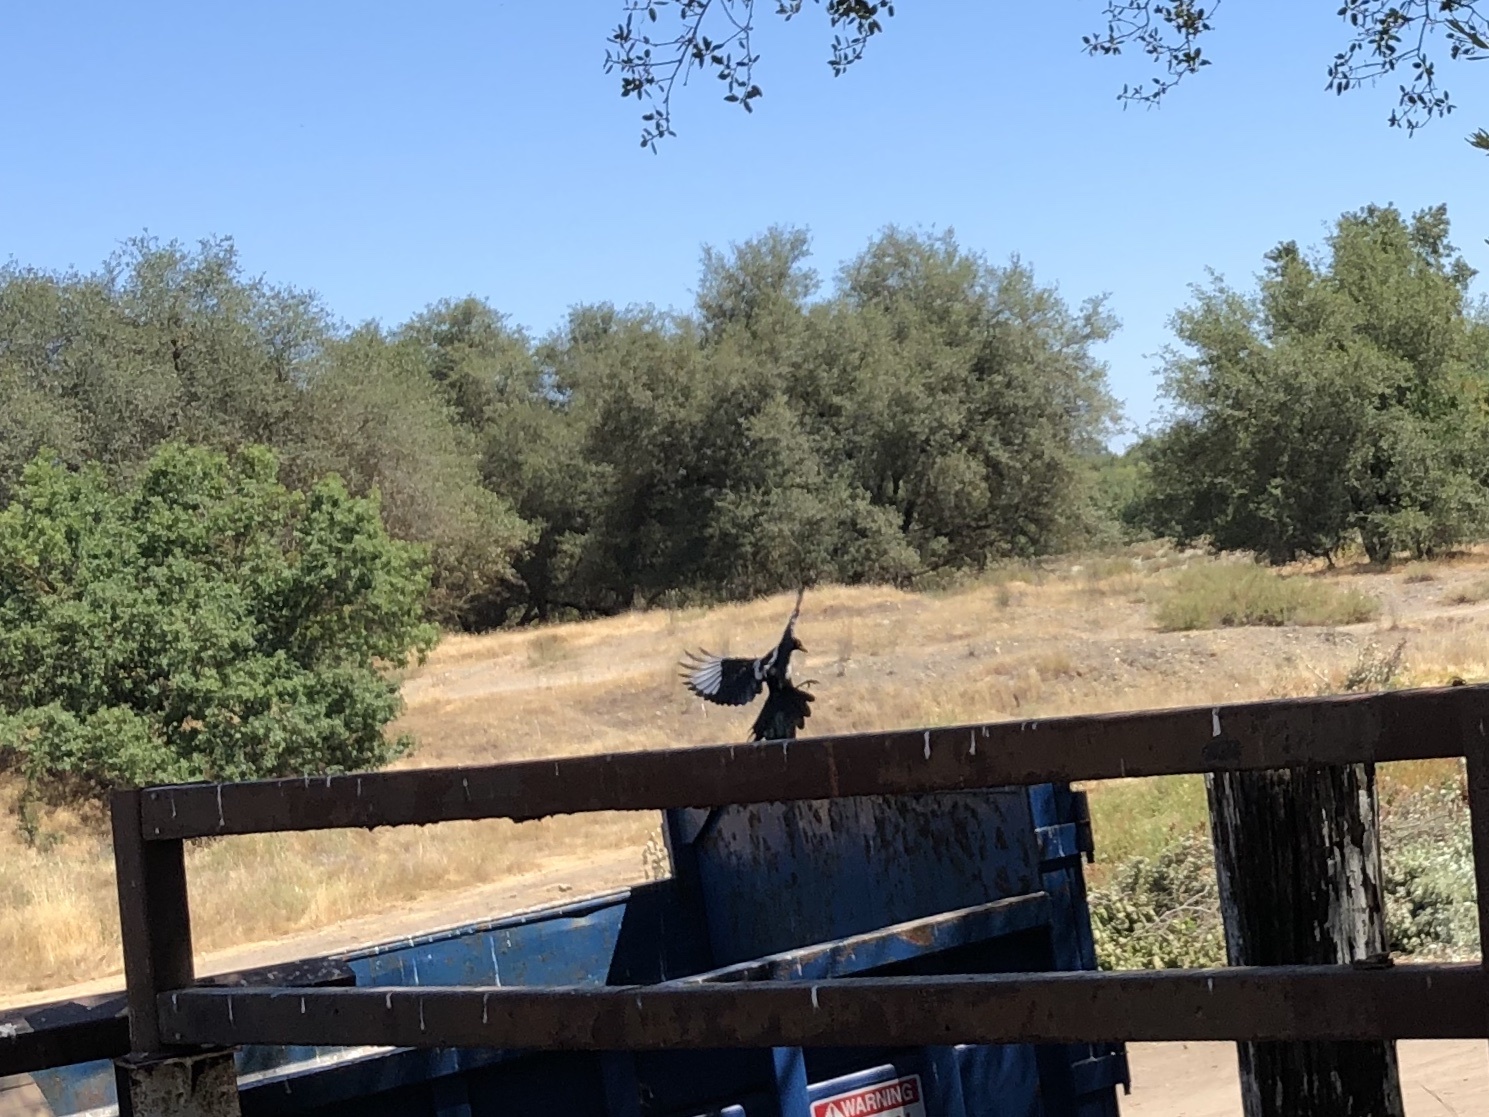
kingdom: Animalia
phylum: Chordata
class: Aves
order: Passeriformes
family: Corvidae
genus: Pica
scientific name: Pica nuttalli
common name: Yellow-billed magpie
